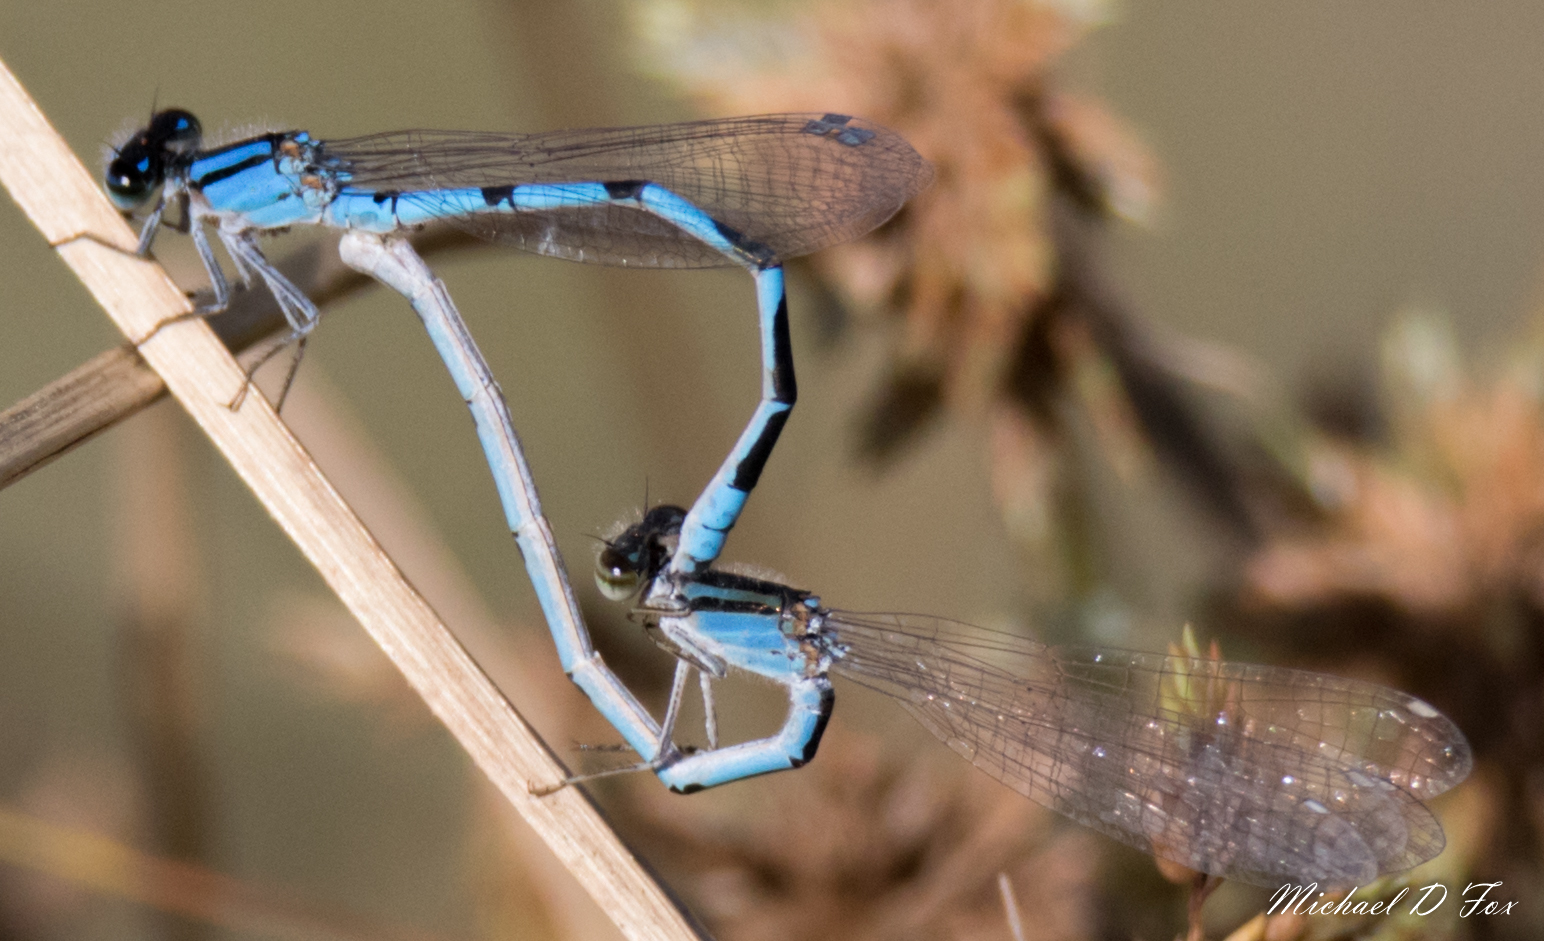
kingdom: Animalia
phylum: Arthropoda
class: Insecta
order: Odonata
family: Coenagrionidae
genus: Enallagma
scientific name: Enallagma civile
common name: Damselfly
